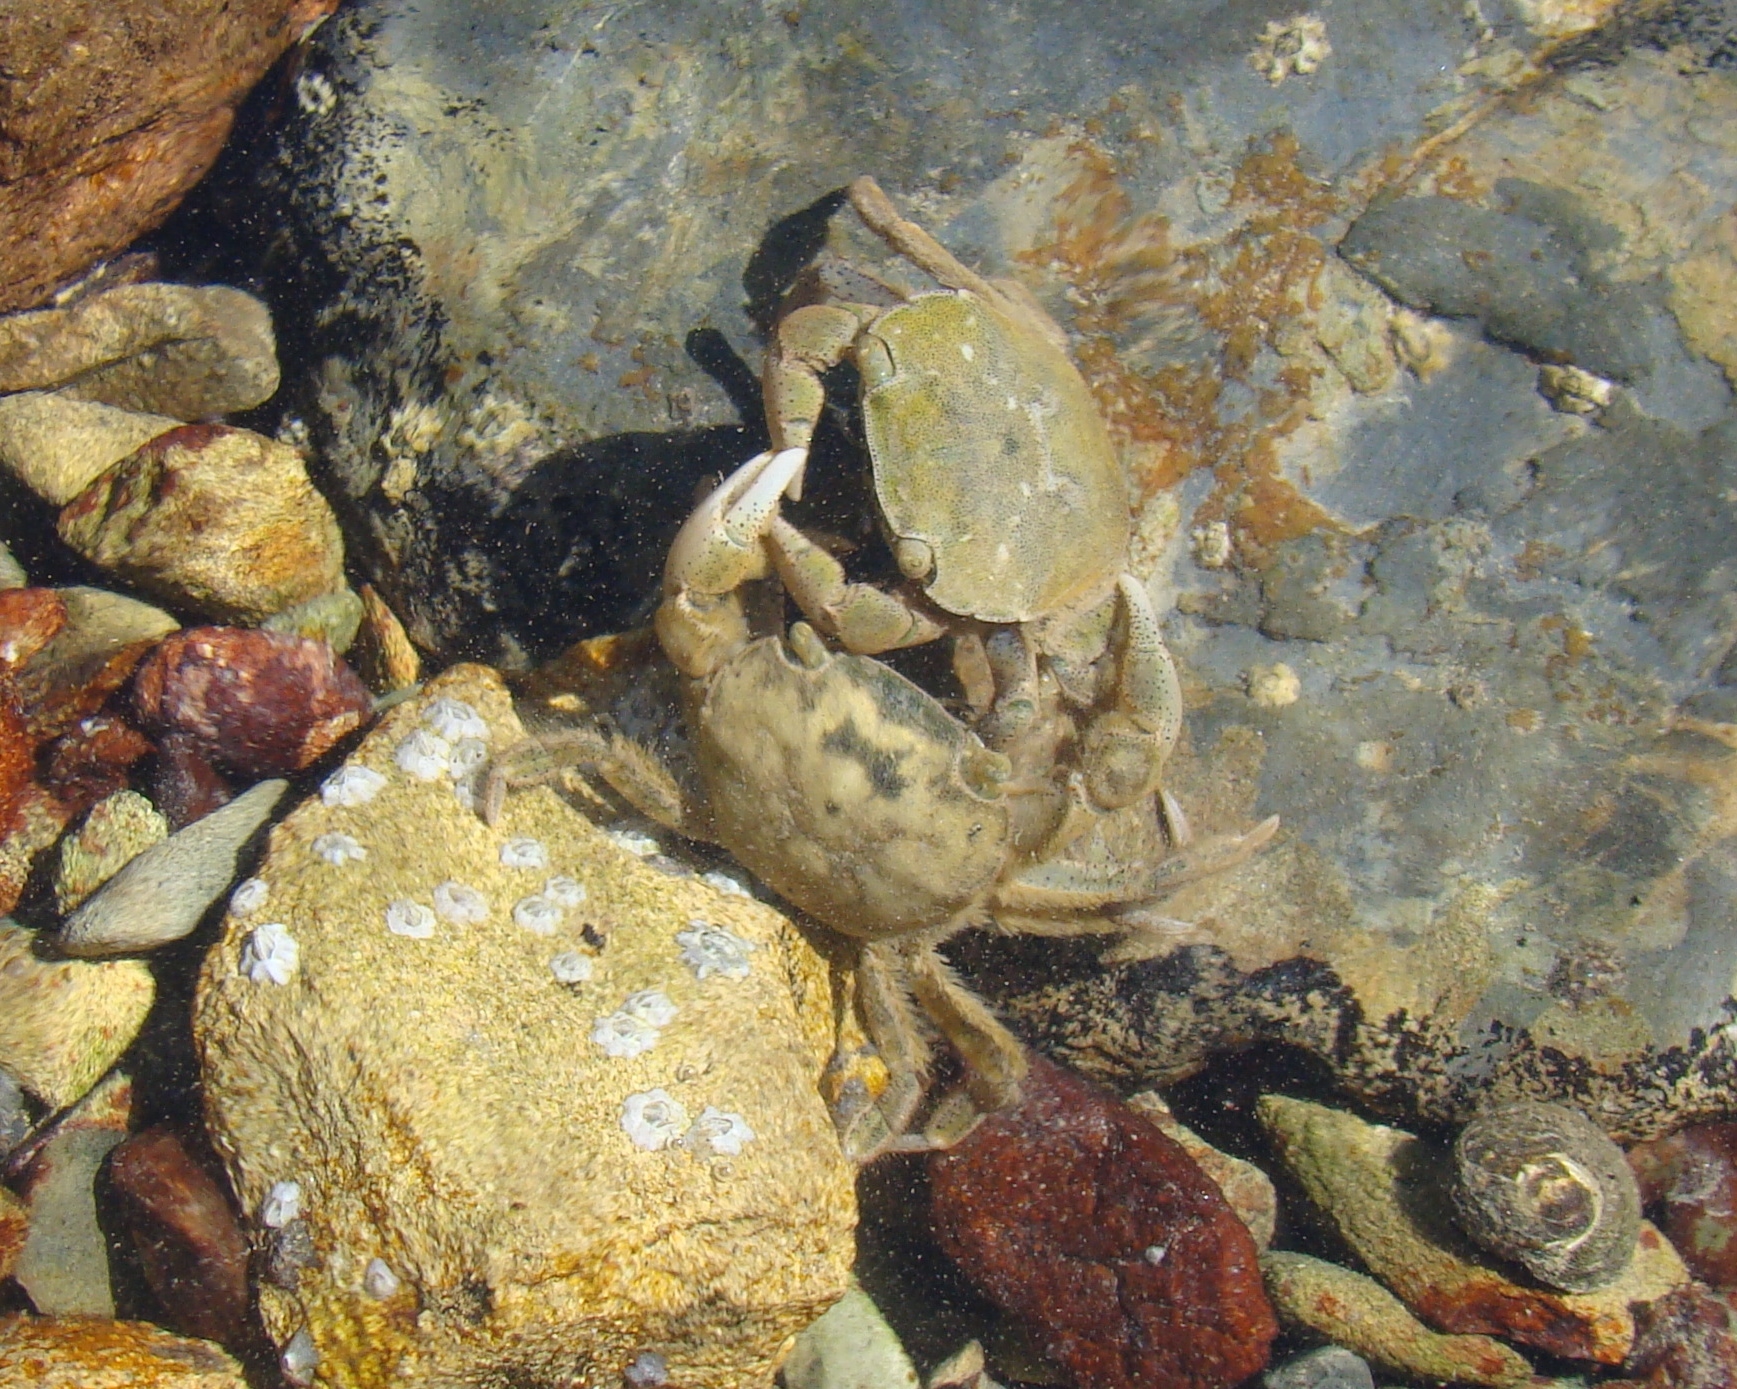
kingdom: Animalia
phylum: Arthropoda
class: Malacostraca
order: Decapoda
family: Varunidae
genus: Hemigrapsus
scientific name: Hemigrapsus crenulatus
